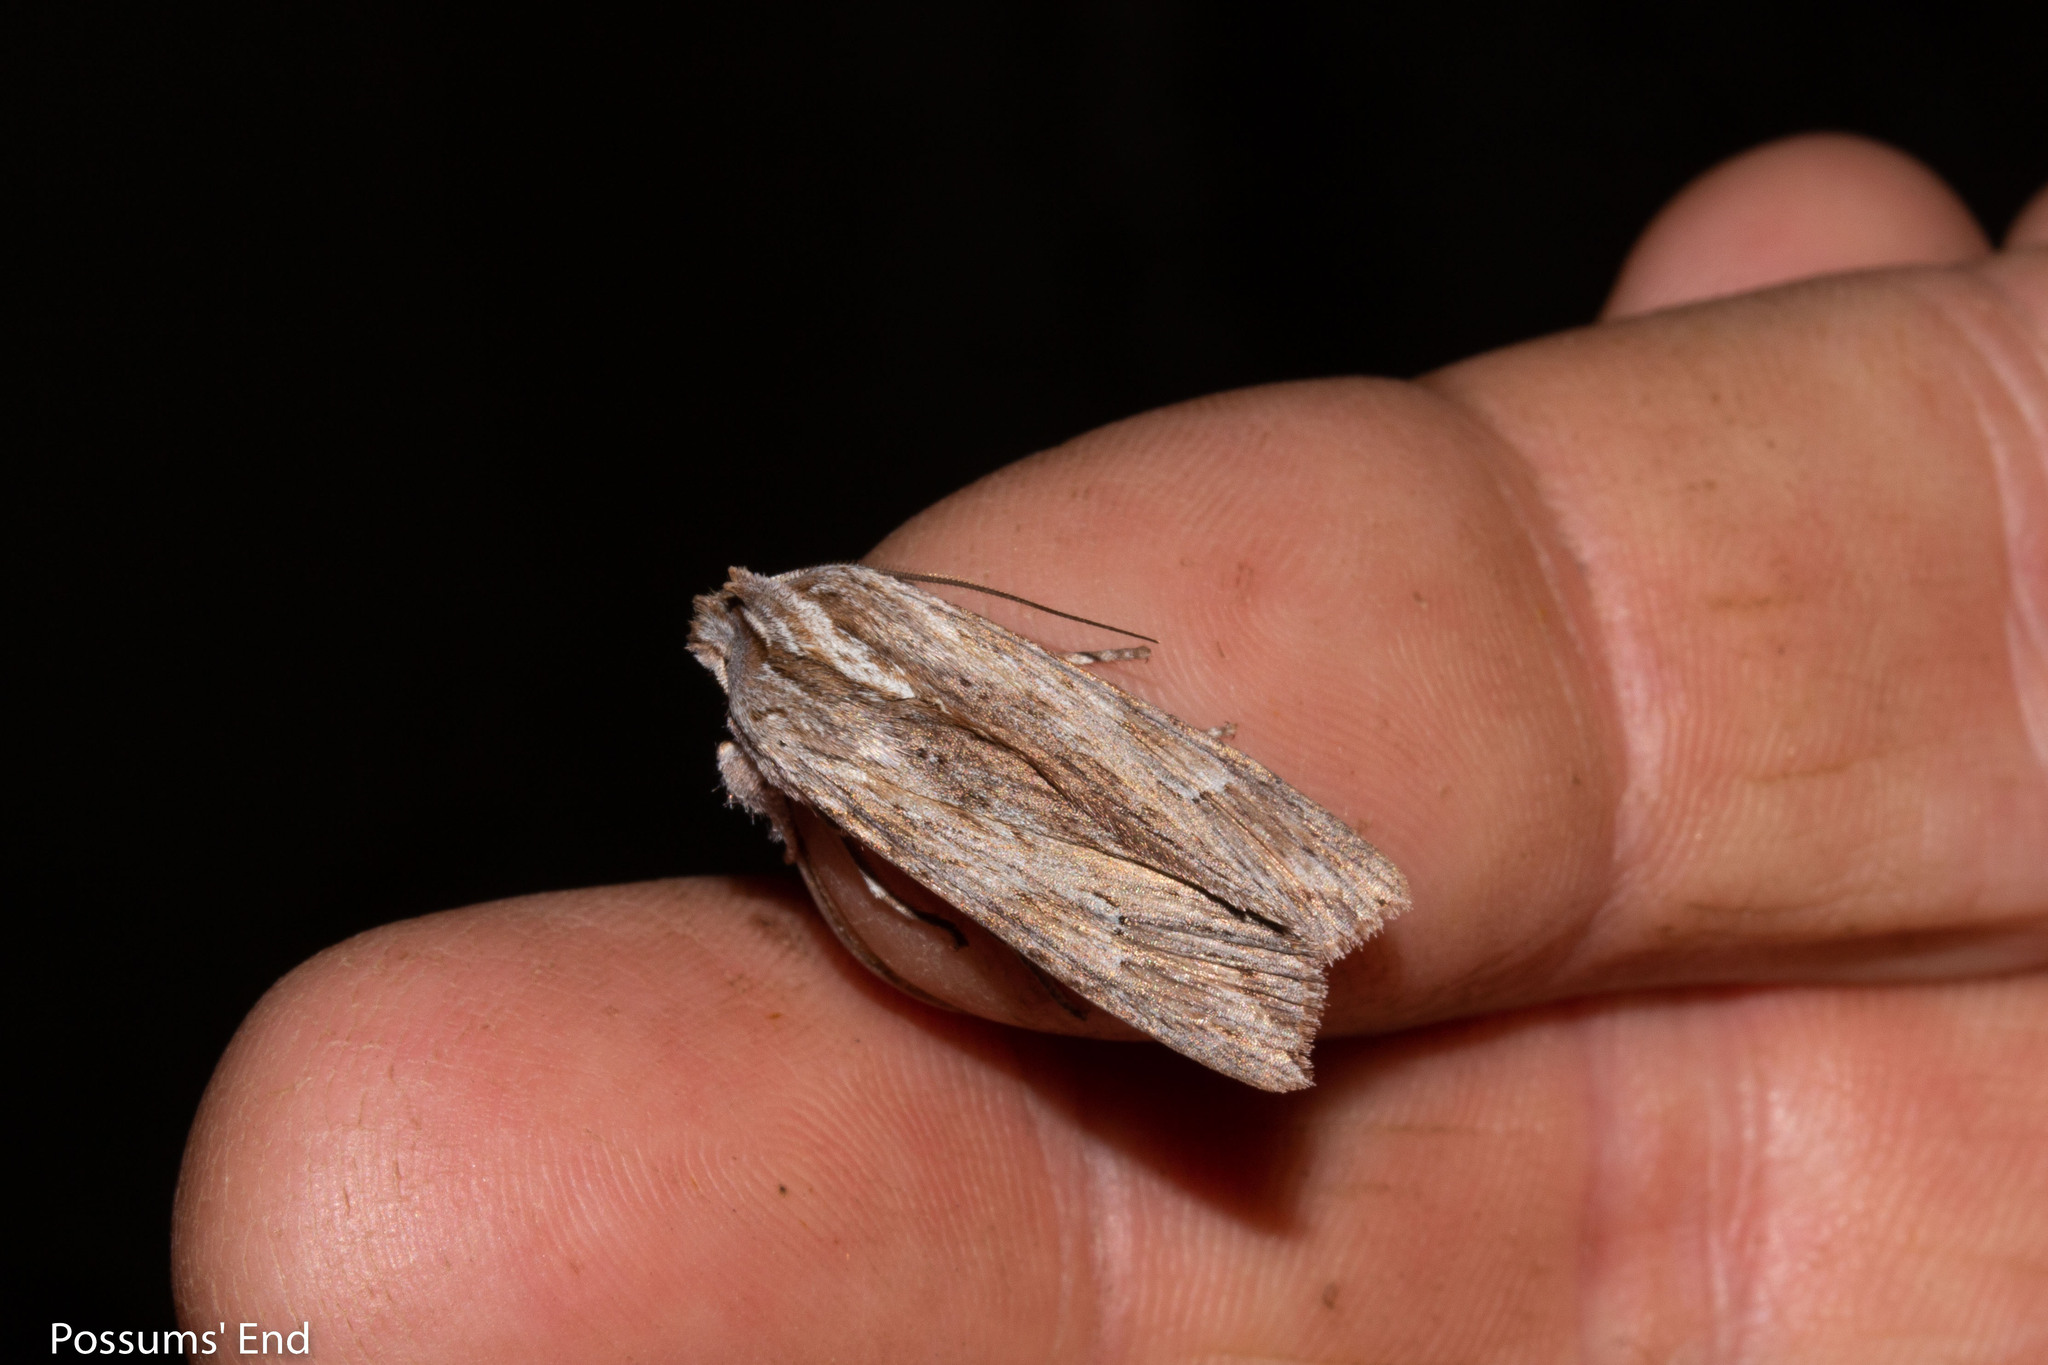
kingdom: Animalia
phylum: Arthropoda
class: Insecta
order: Lepidoptera
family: Noctuidae
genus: Physetica
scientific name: Physetica prionistis
